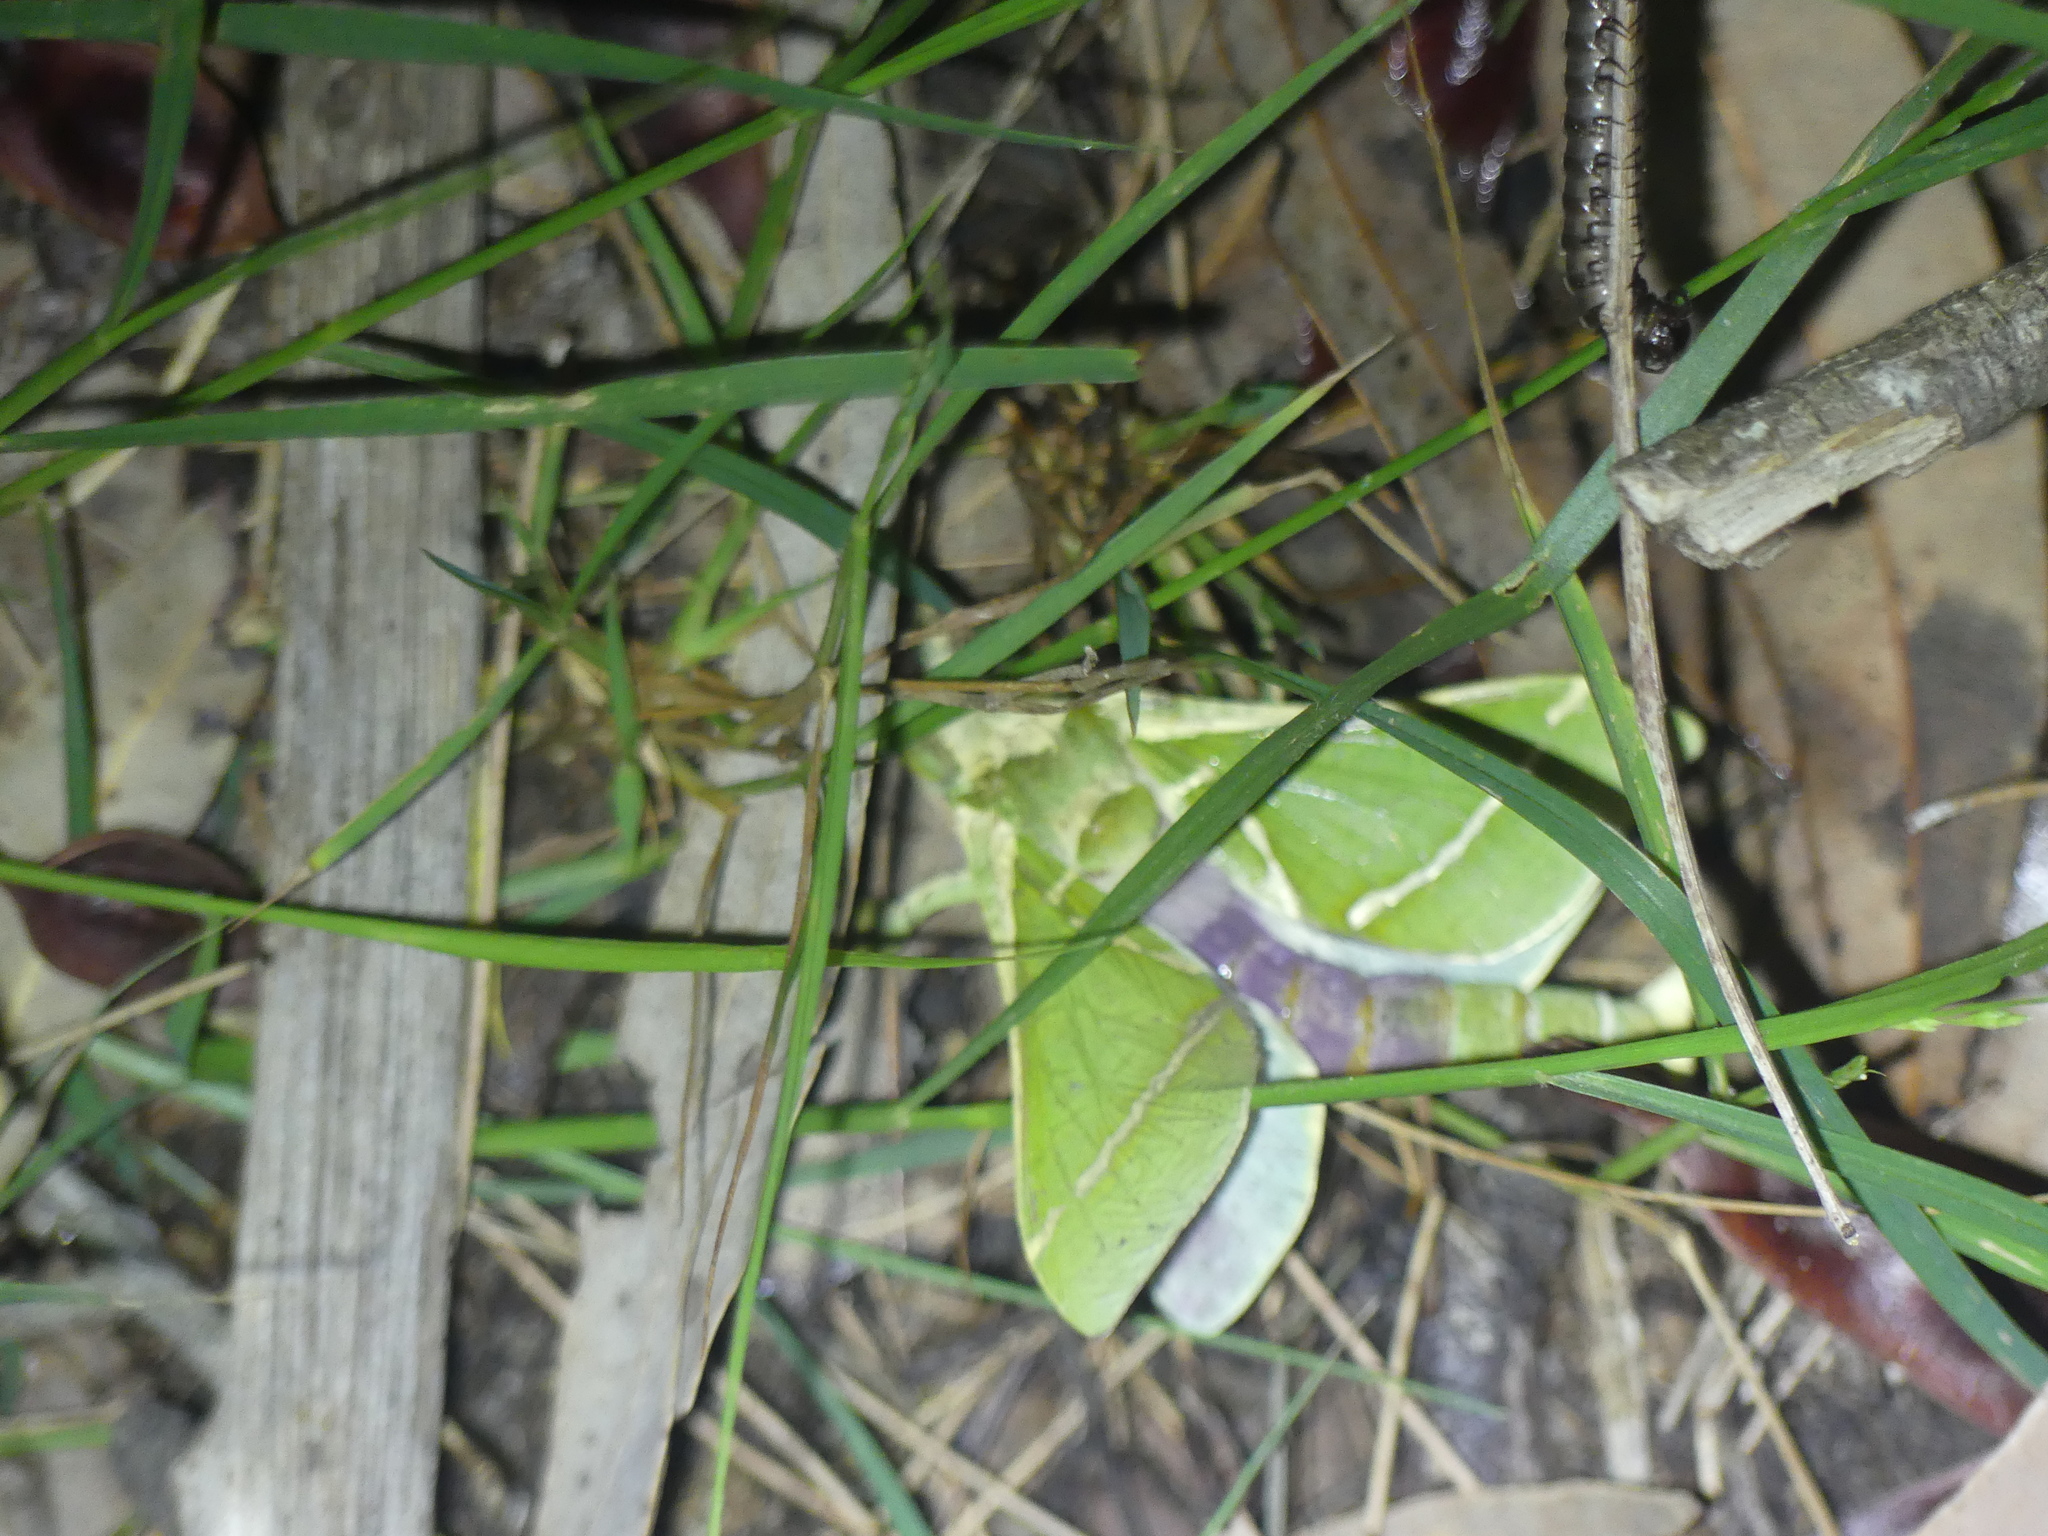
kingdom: Animalia
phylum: Arthropoda
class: Insecta
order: Lepidoptera
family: Hepialidae
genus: Aenetus
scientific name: Aenetus ligniveren
